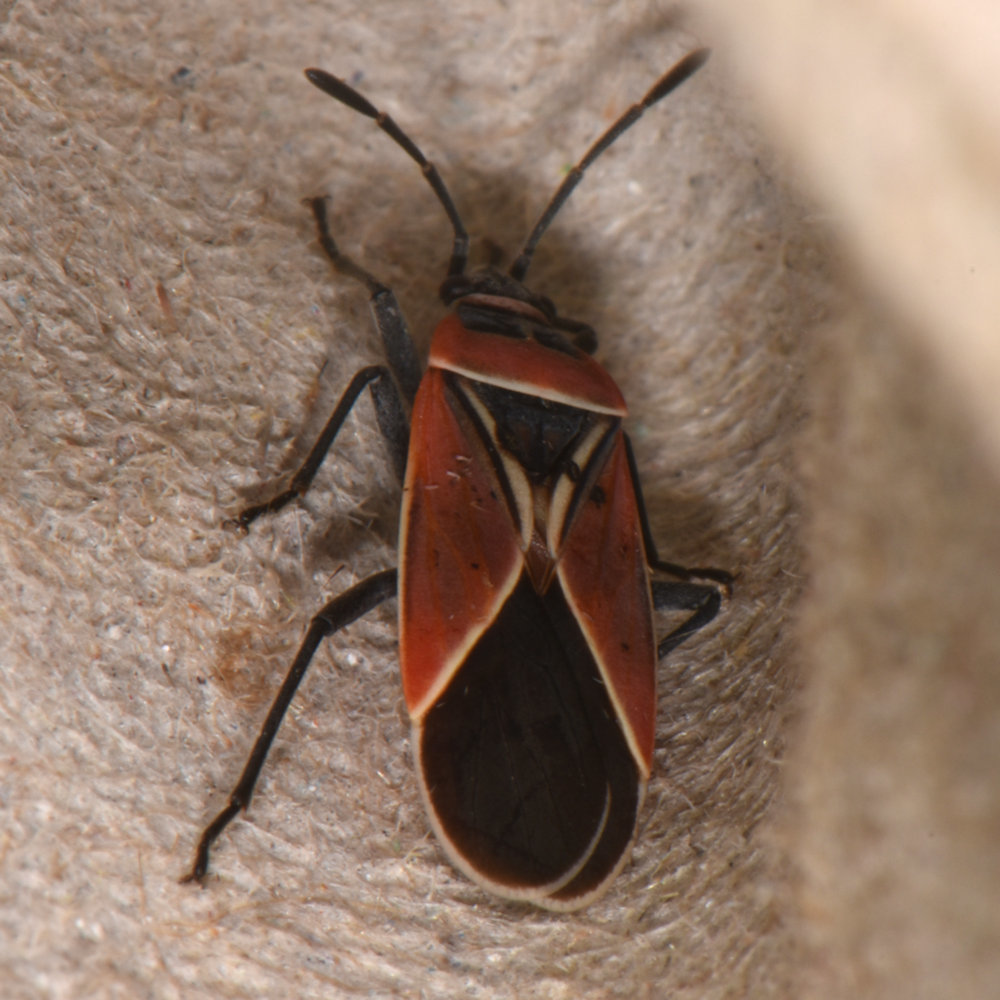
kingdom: Animalia
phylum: Arthropoda
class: Insecta
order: Hemiptera
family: Lygaeidae
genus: Neacoryphus
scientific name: Neacoryphus bicrucis
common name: Lygaeid bug
